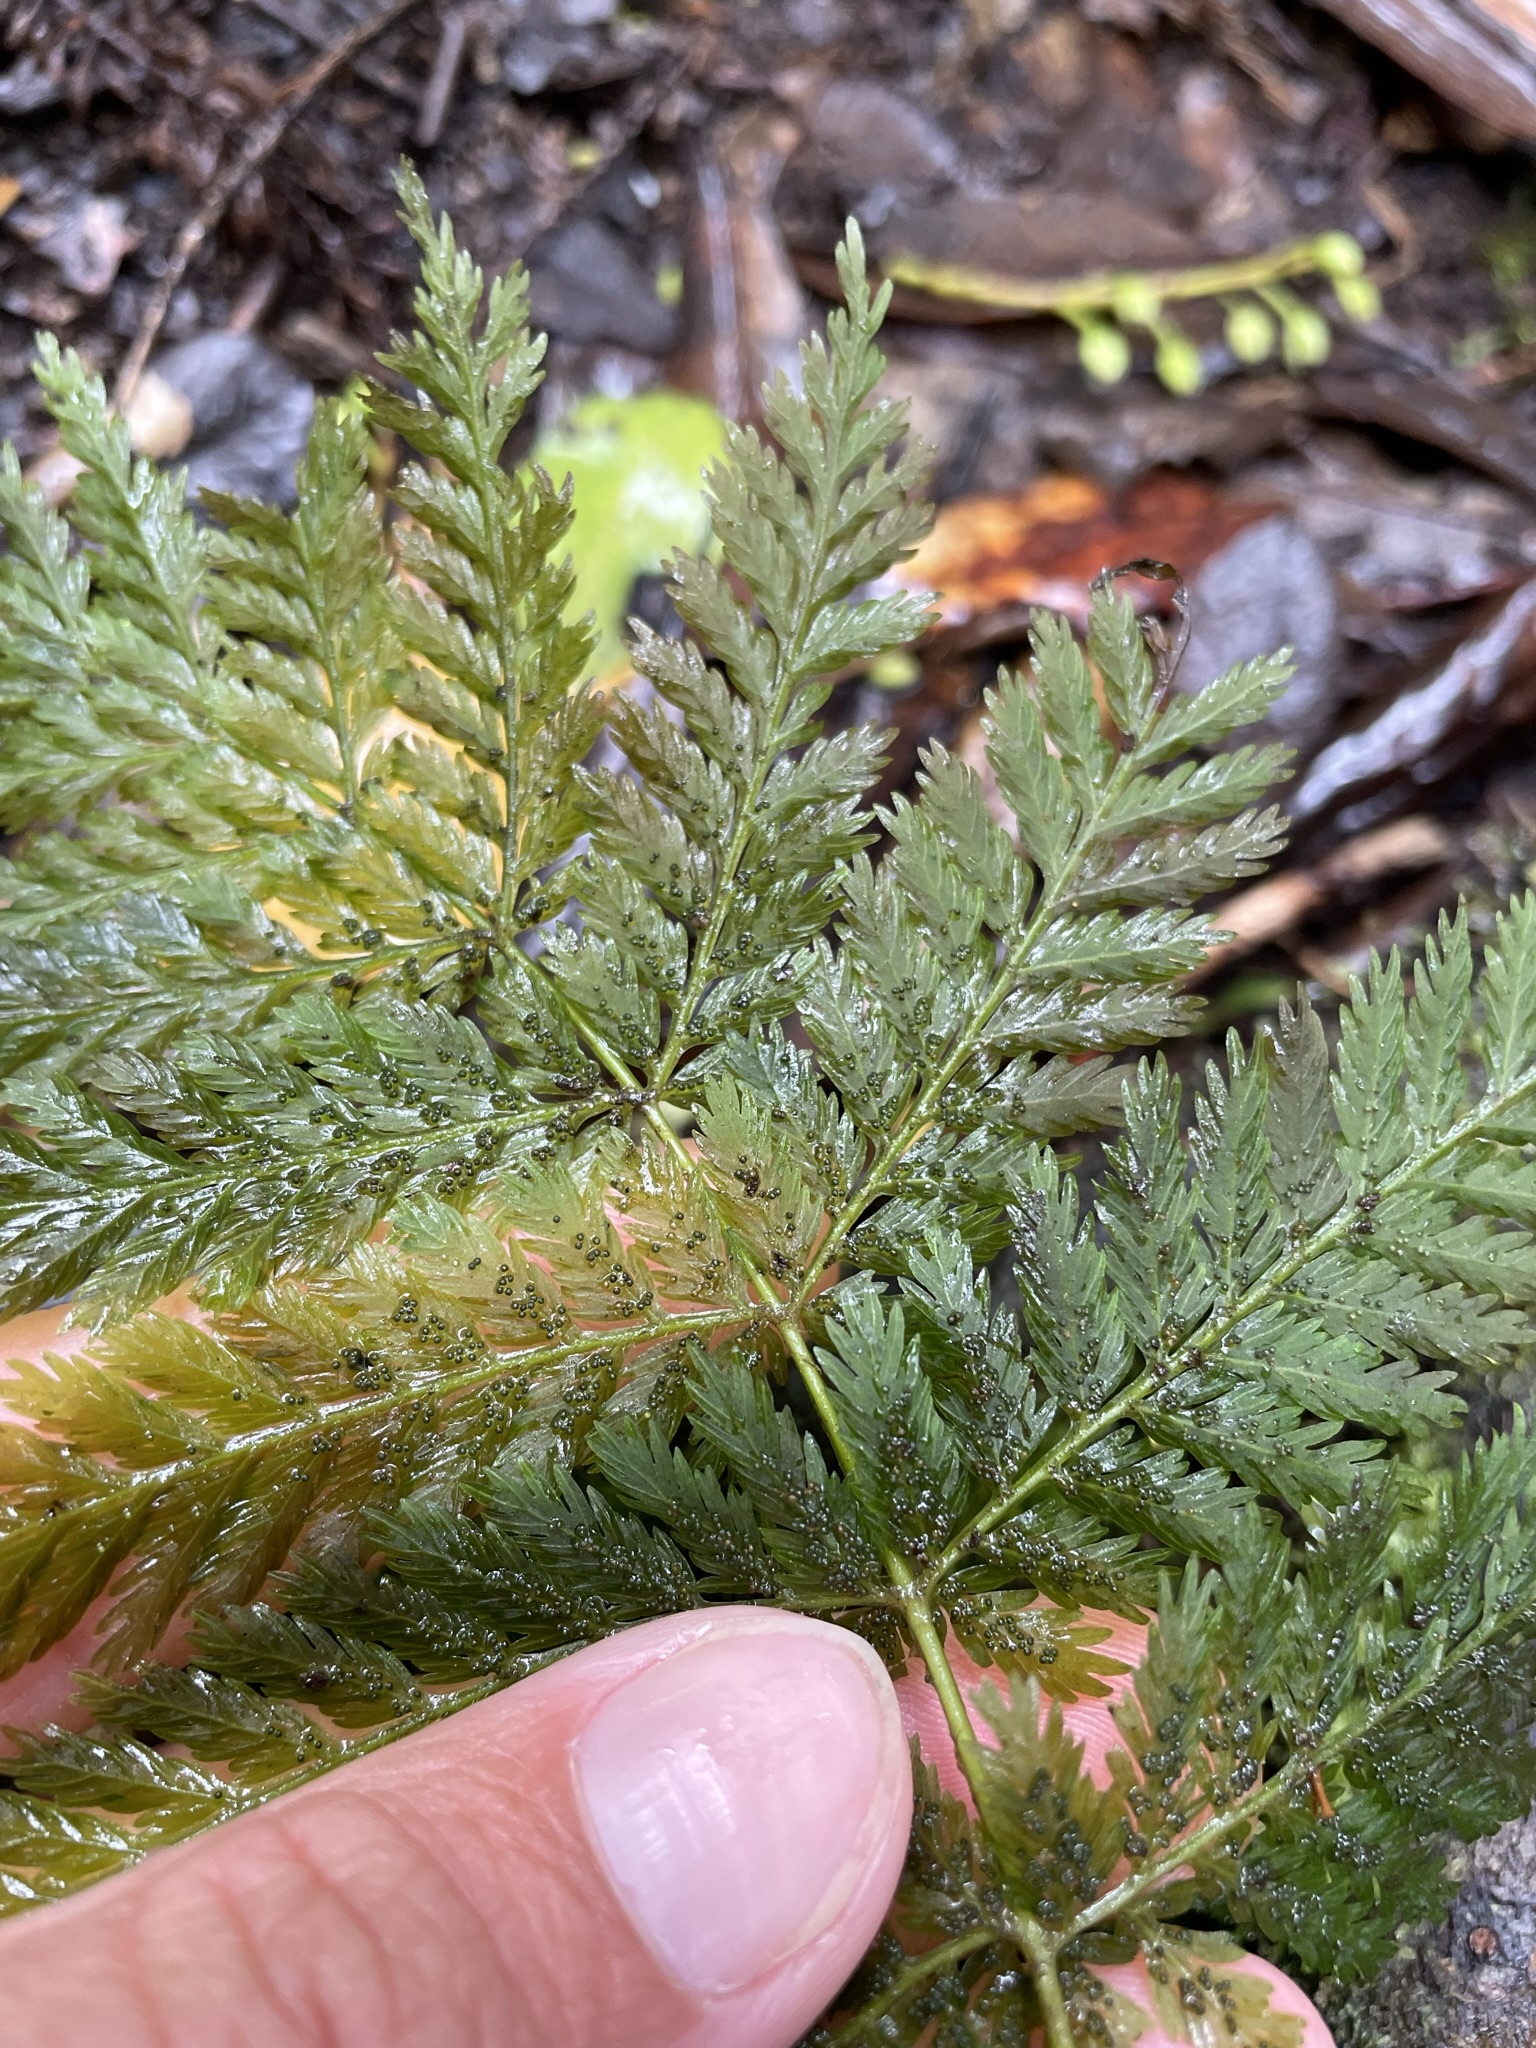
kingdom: Plantae
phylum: Tracheophyta
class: Polypodiopsida
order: Osmundales
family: Osmundaceae
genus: Leptopteris
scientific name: Leptopteris hymenophylloides
